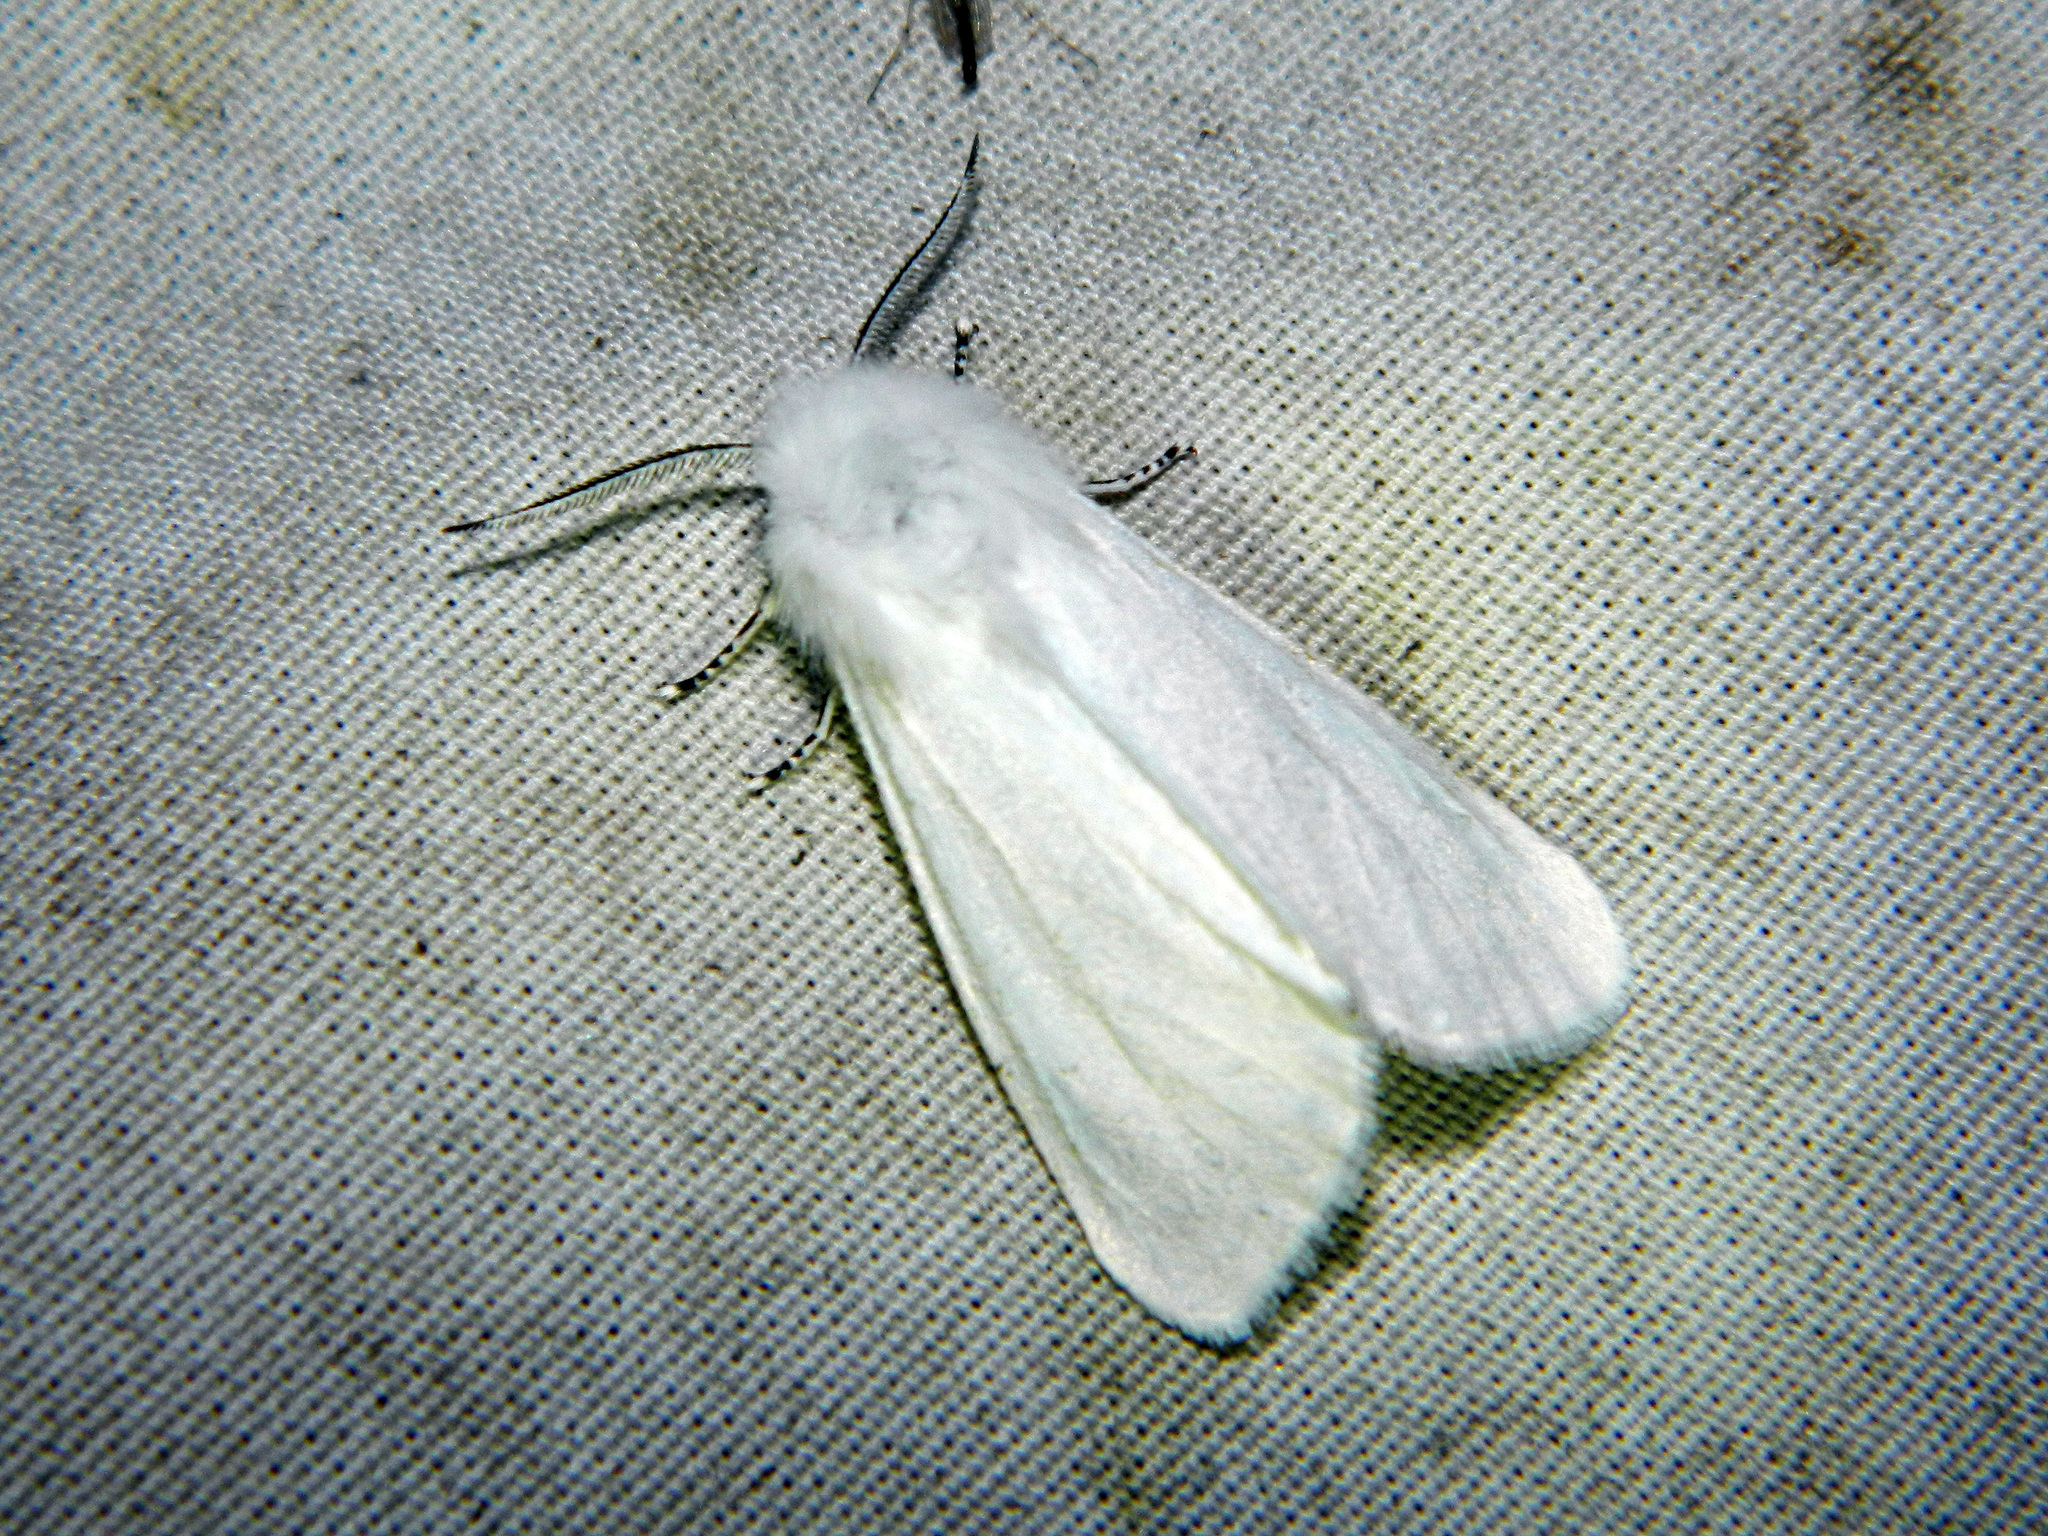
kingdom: Animalia
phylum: Arthropoda
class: Insecta
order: Lepidoptera
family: Erebidae
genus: Hyphantria
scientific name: Hyphantria cunea
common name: American white moth
